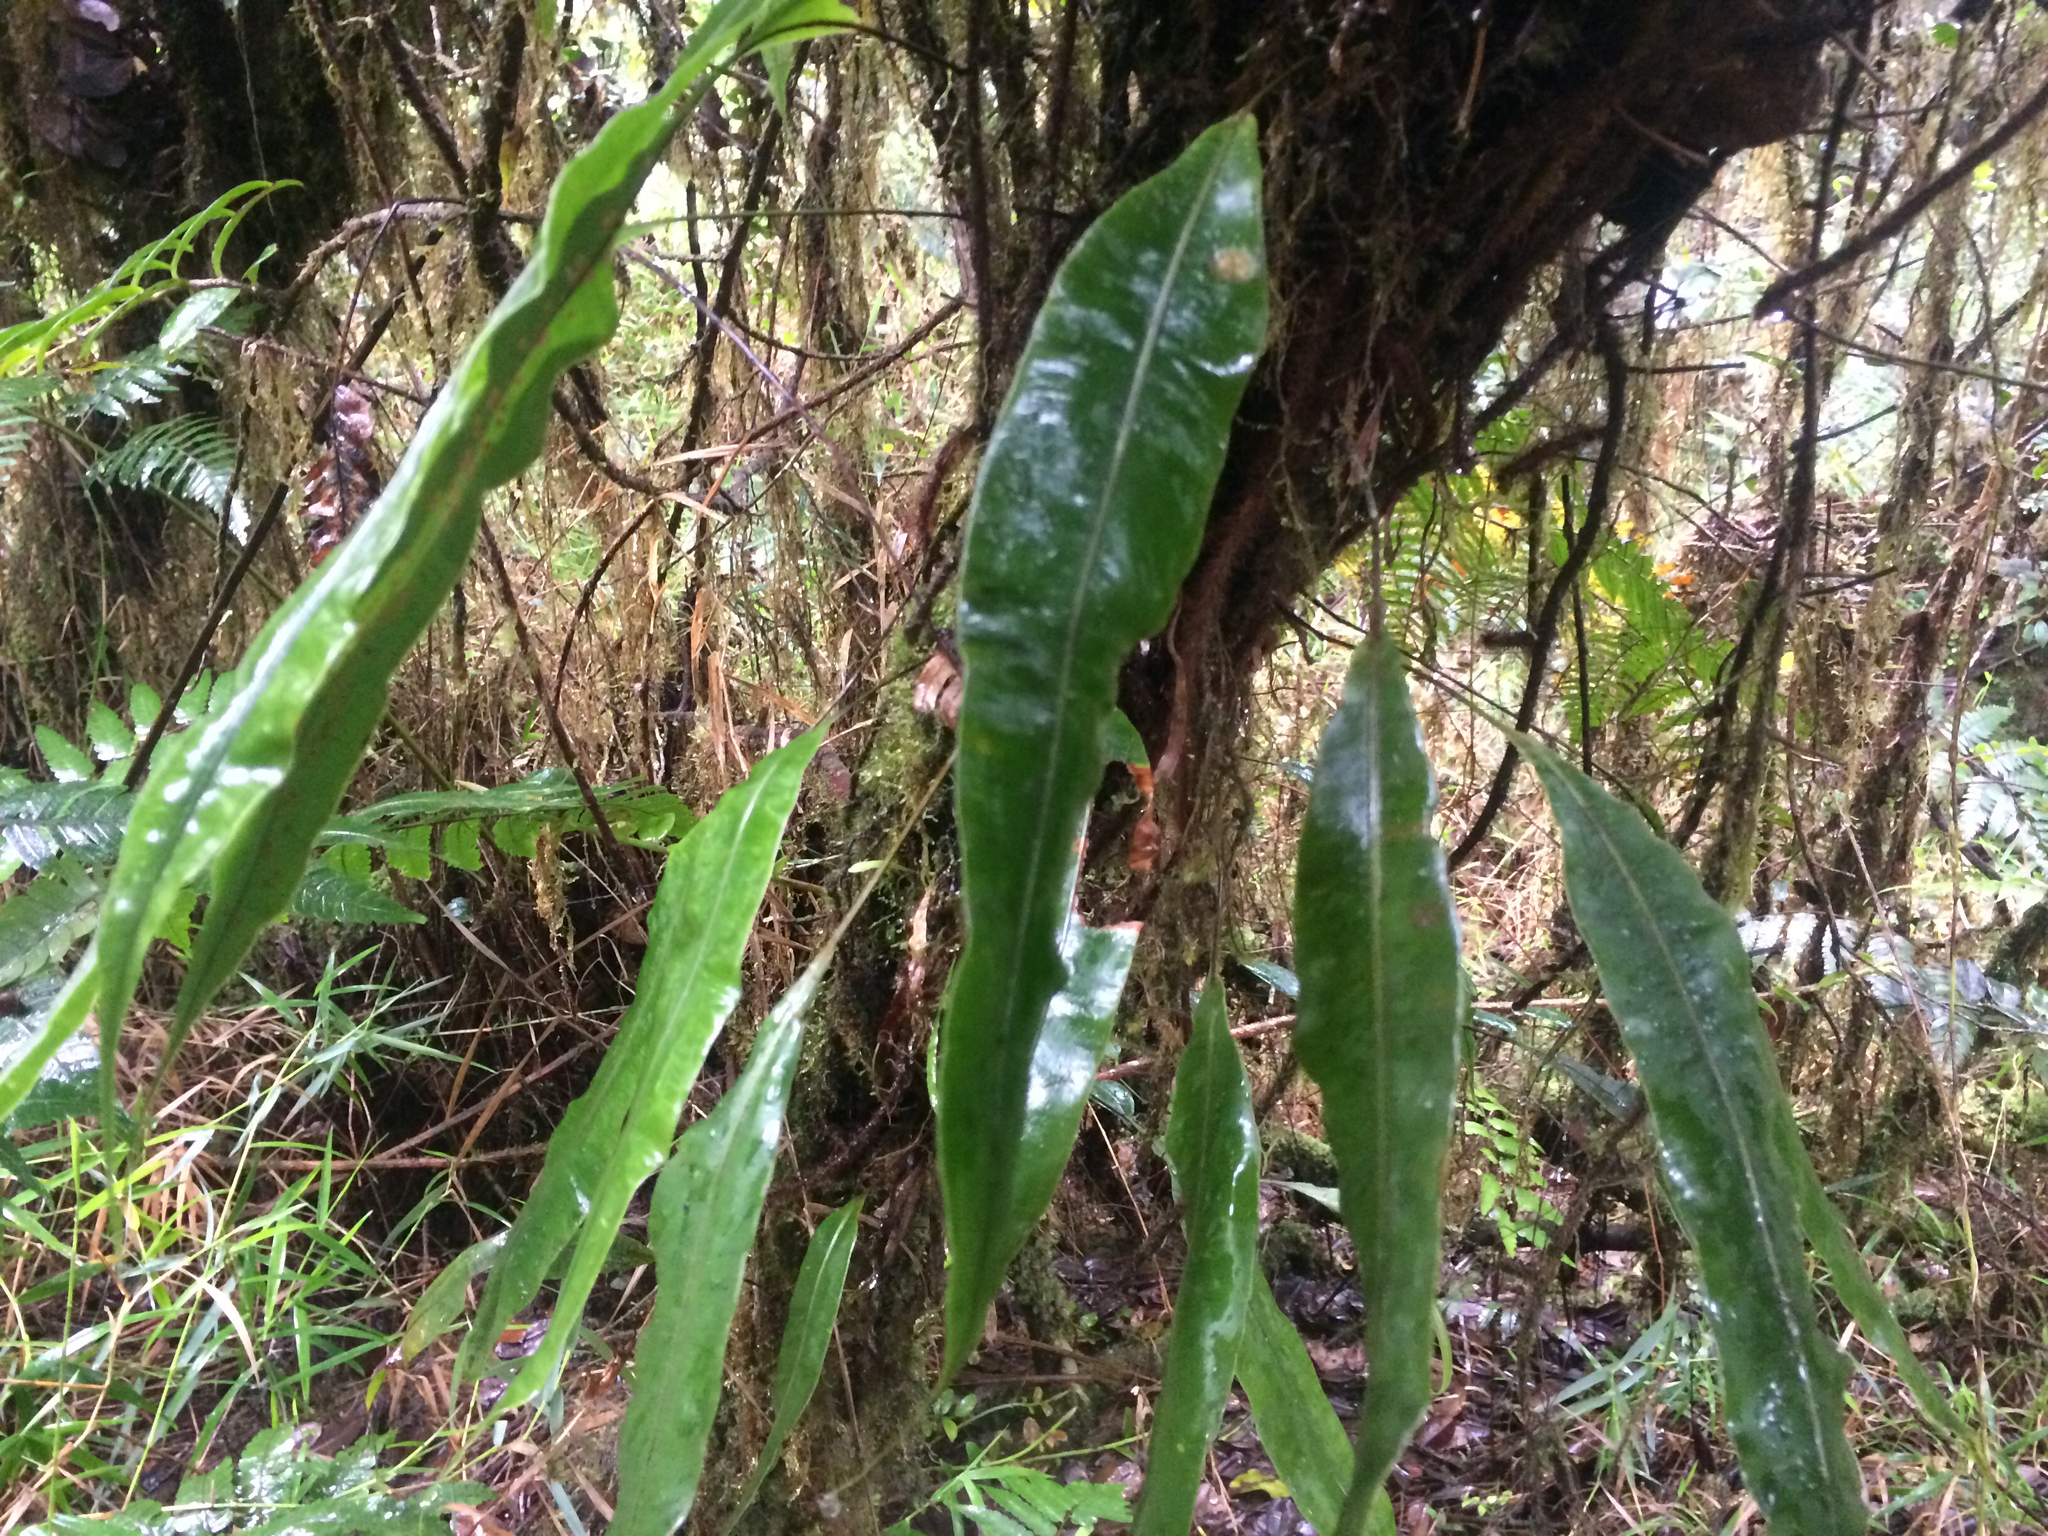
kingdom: Plantae
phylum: Tracheophyta
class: Polypodiopsida
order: Polypodiales
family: Oleandraceae
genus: Oleandra
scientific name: Oleandra articulata
